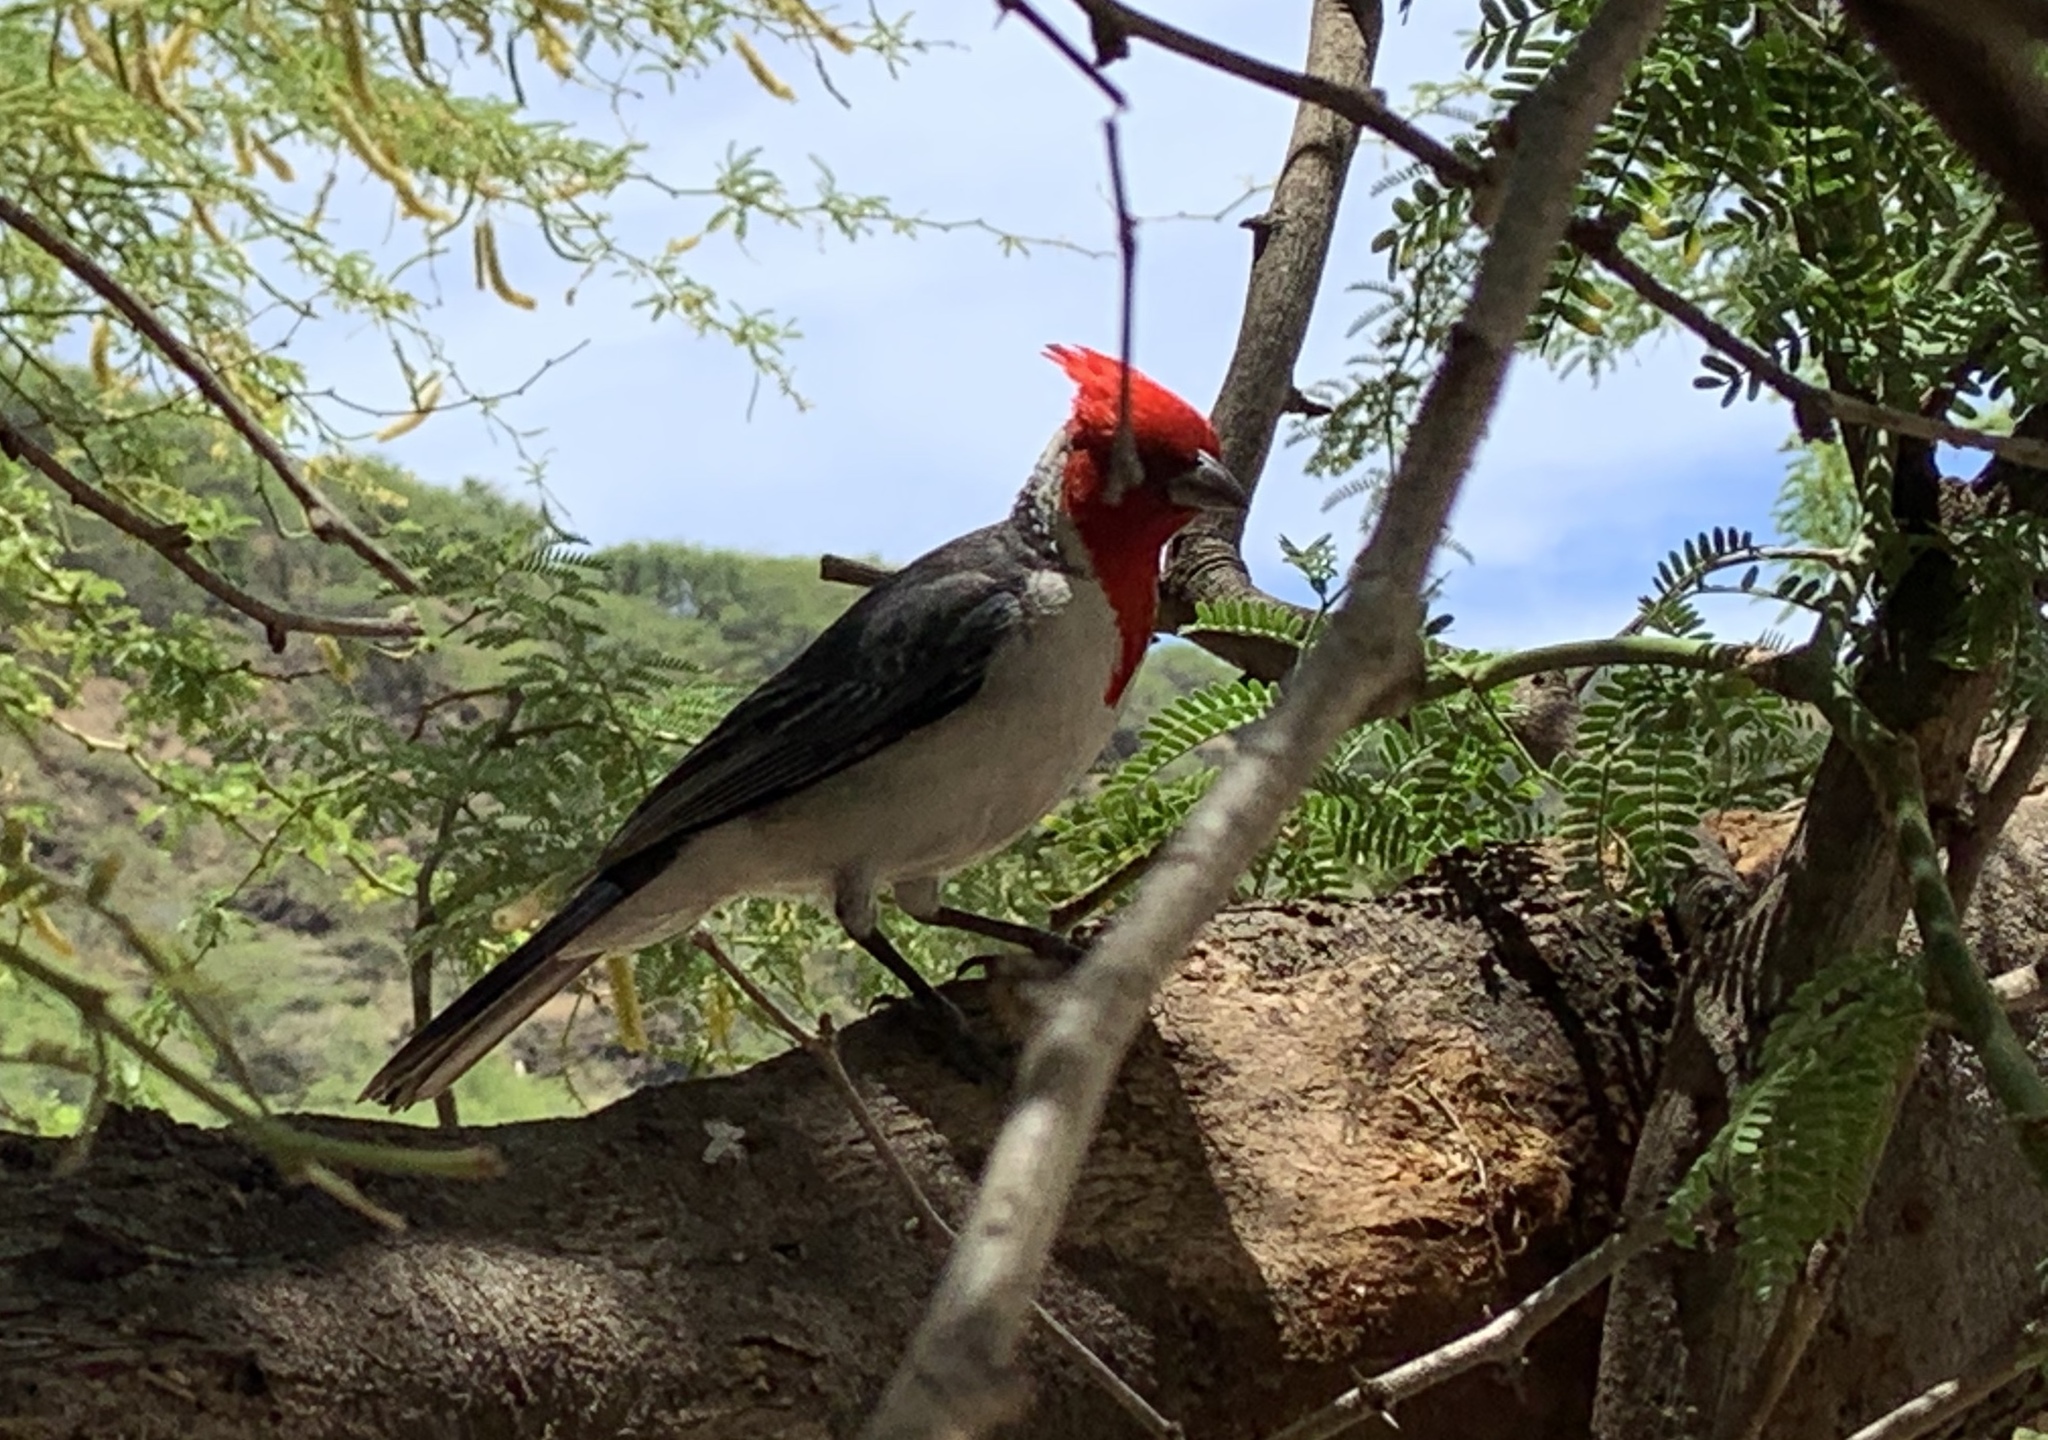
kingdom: Animalia
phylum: Chordata
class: Aves
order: Passeriformes
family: Thraupidae
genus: Paroaria
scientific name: Paroaria coronata
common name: Red-crested cardinal
